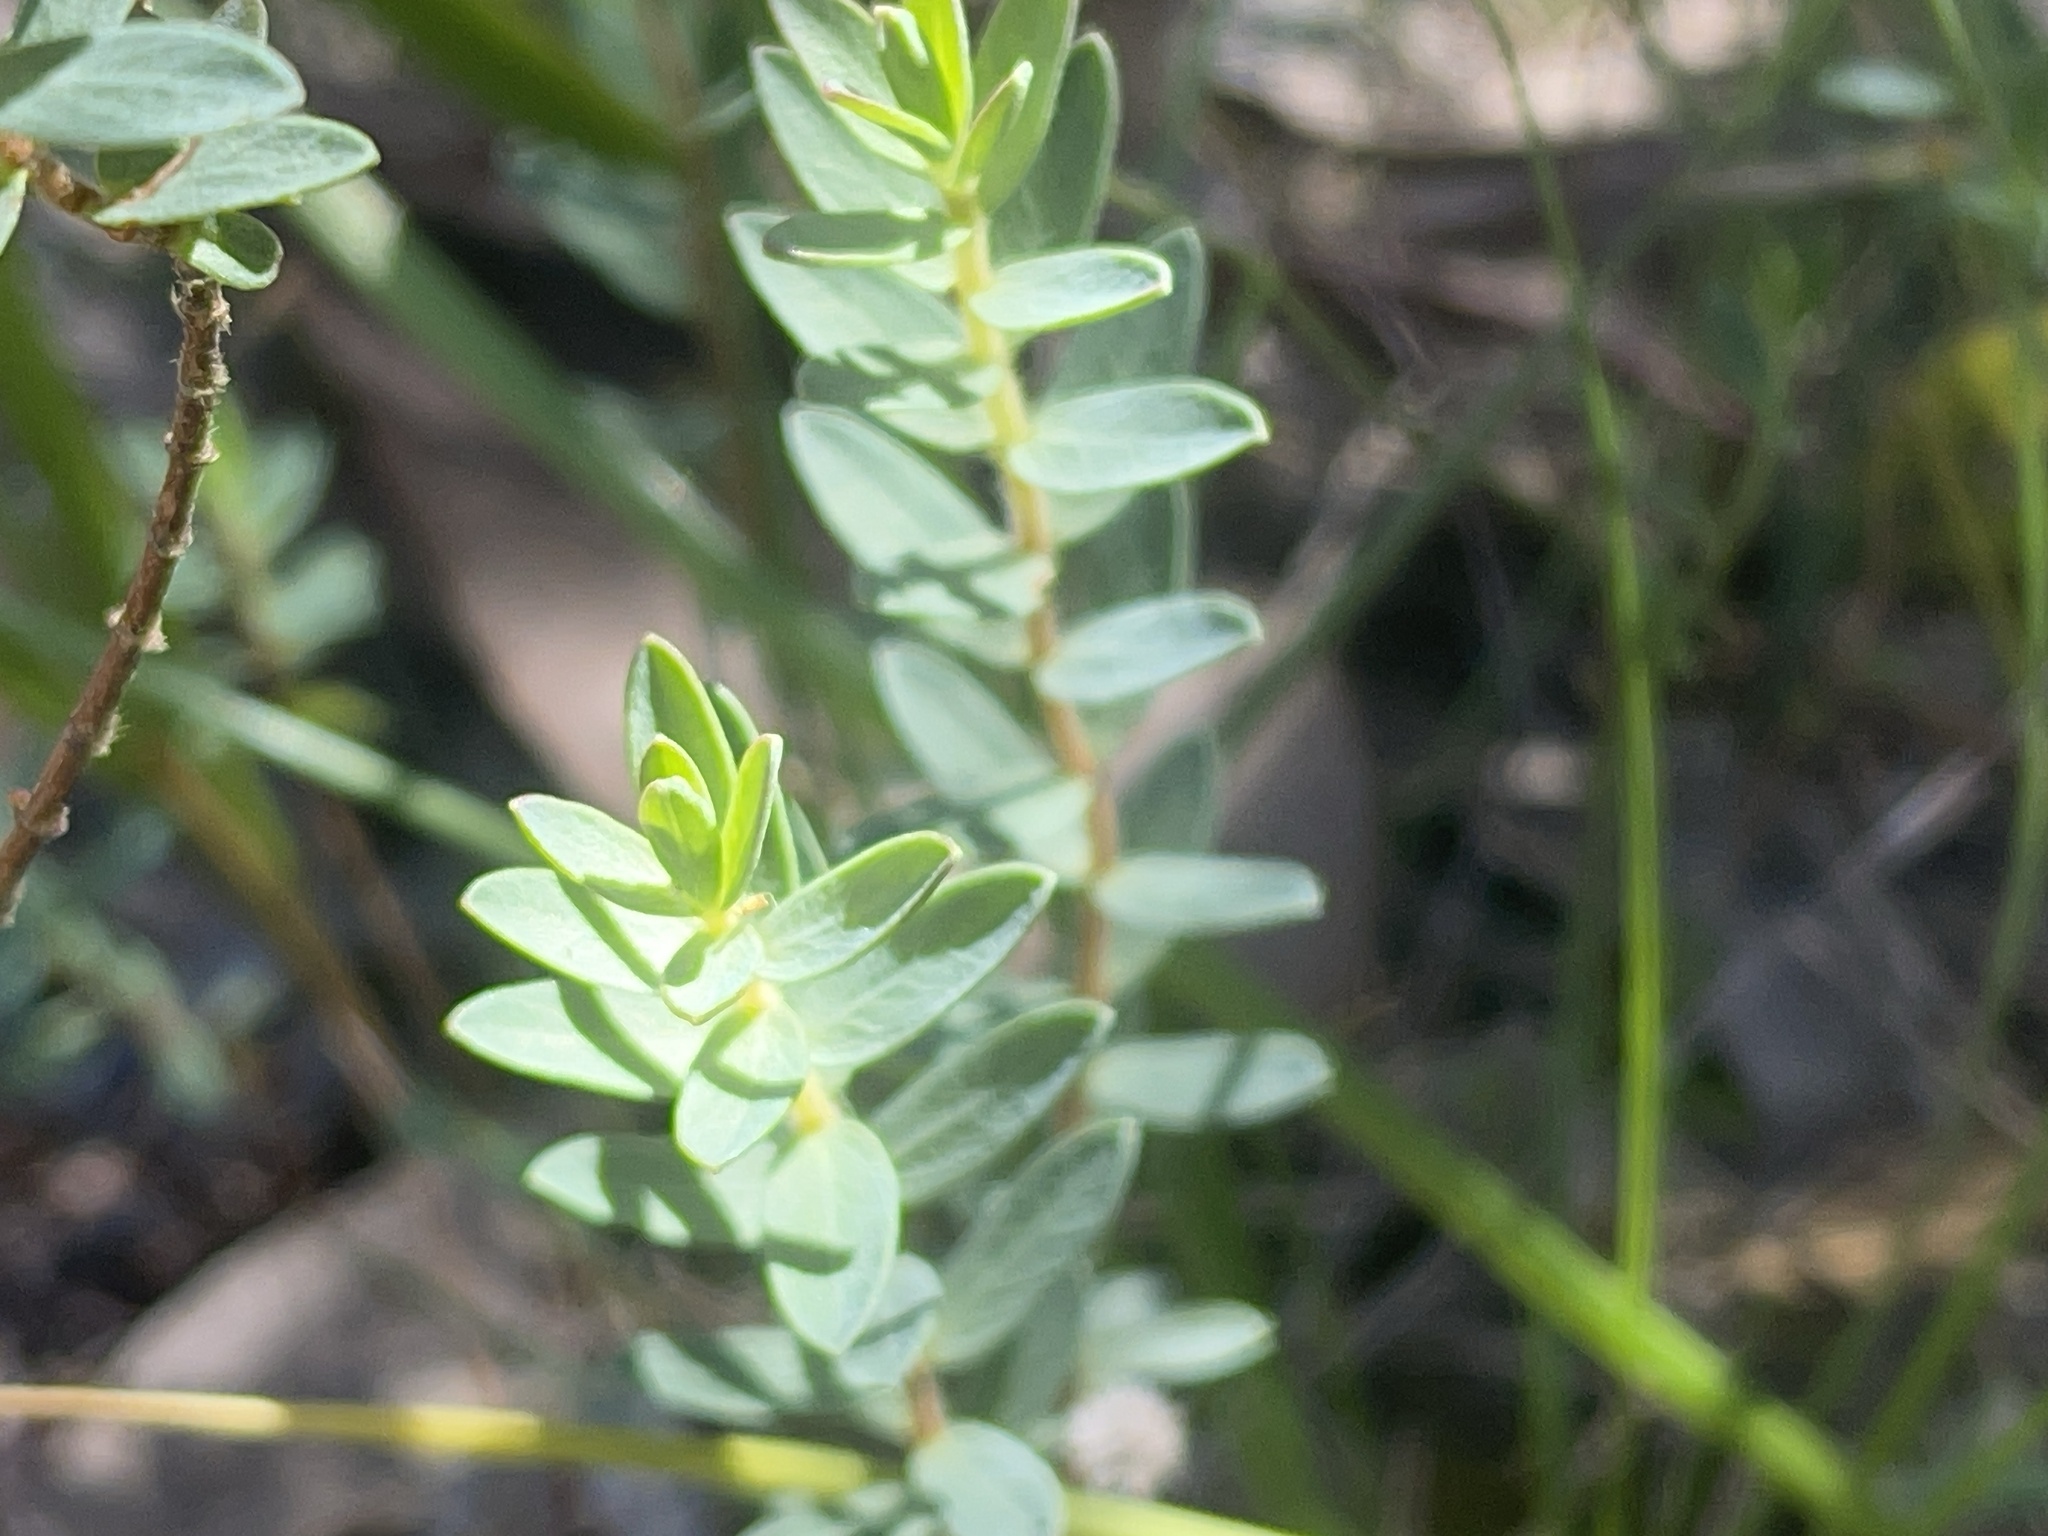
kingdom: Plantae
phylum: Tracheophyta
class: Magnoliopsida
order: Malvales
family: Thymelaeaceae
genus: Pimelea
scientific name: Pimelea humilis
